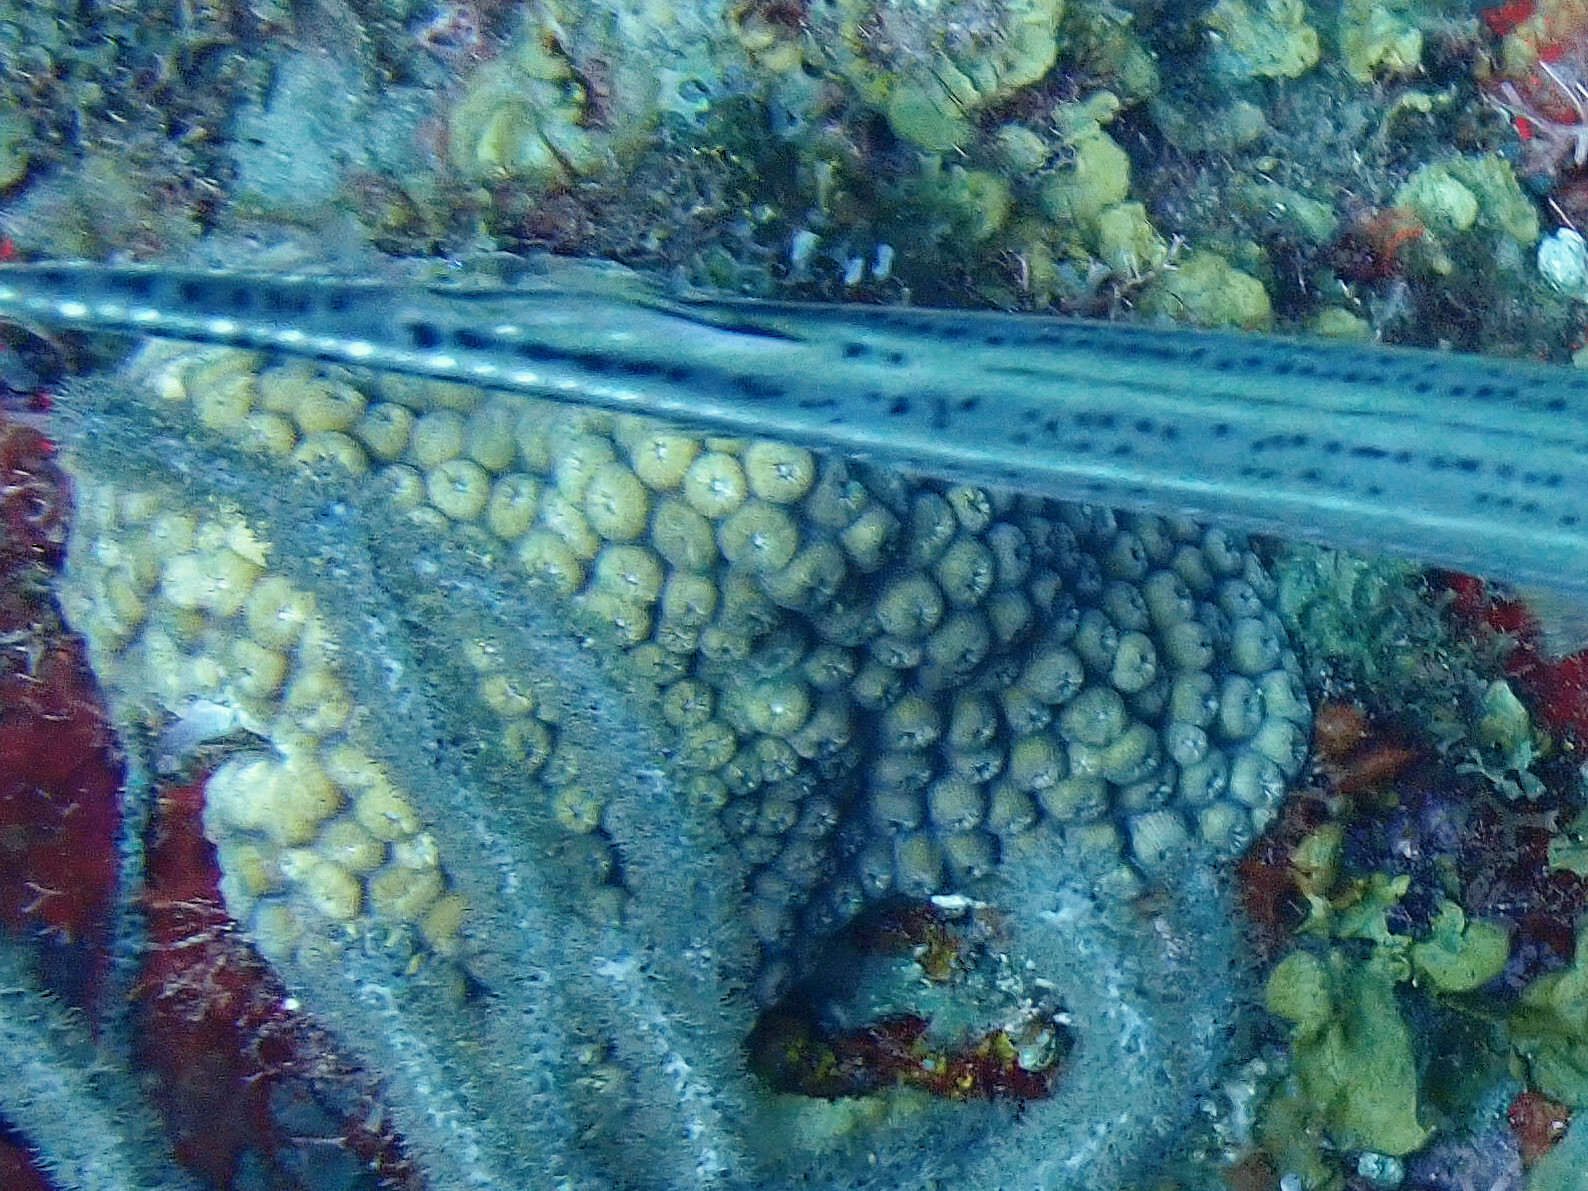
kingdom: Animalia
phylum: Cnidaria
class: Anthozoa
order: Scleractinia
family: Montastraeidae
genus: Montastraea
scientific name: Montastraea cavernosa
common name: Great star coral
